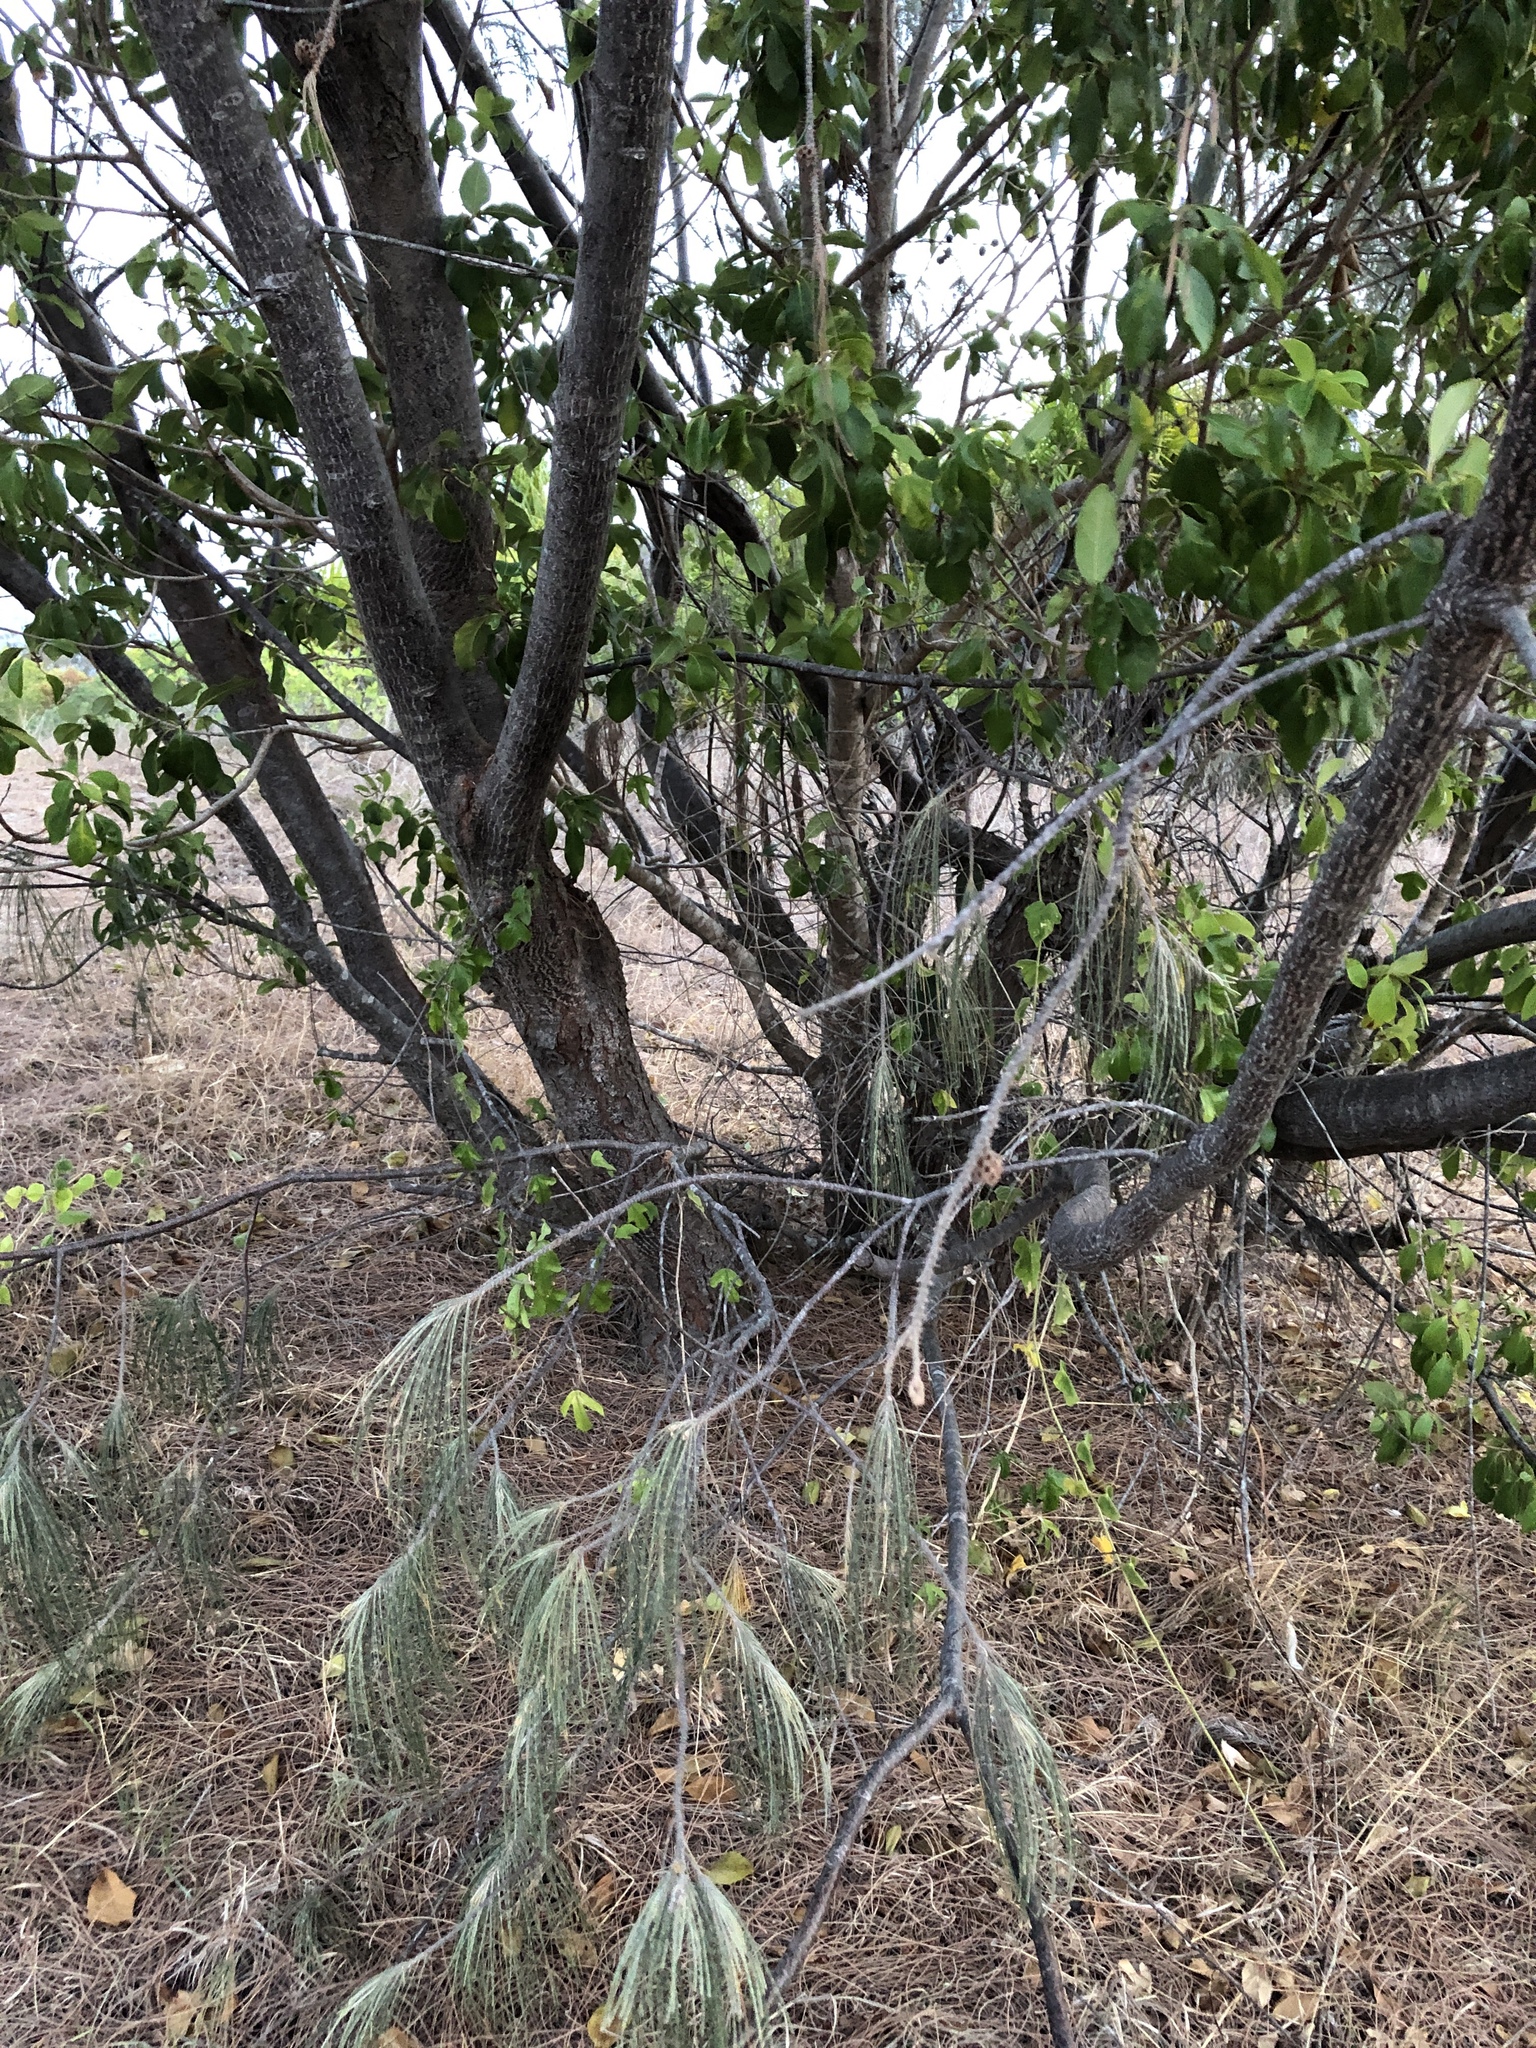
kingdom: Plantae
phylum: Tracheophyta
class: Magnoliopsida
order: Fagales
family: Casuarinaceae
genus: Casuarina
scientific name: Casuarina equisetifolia
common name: Beach sheoak
